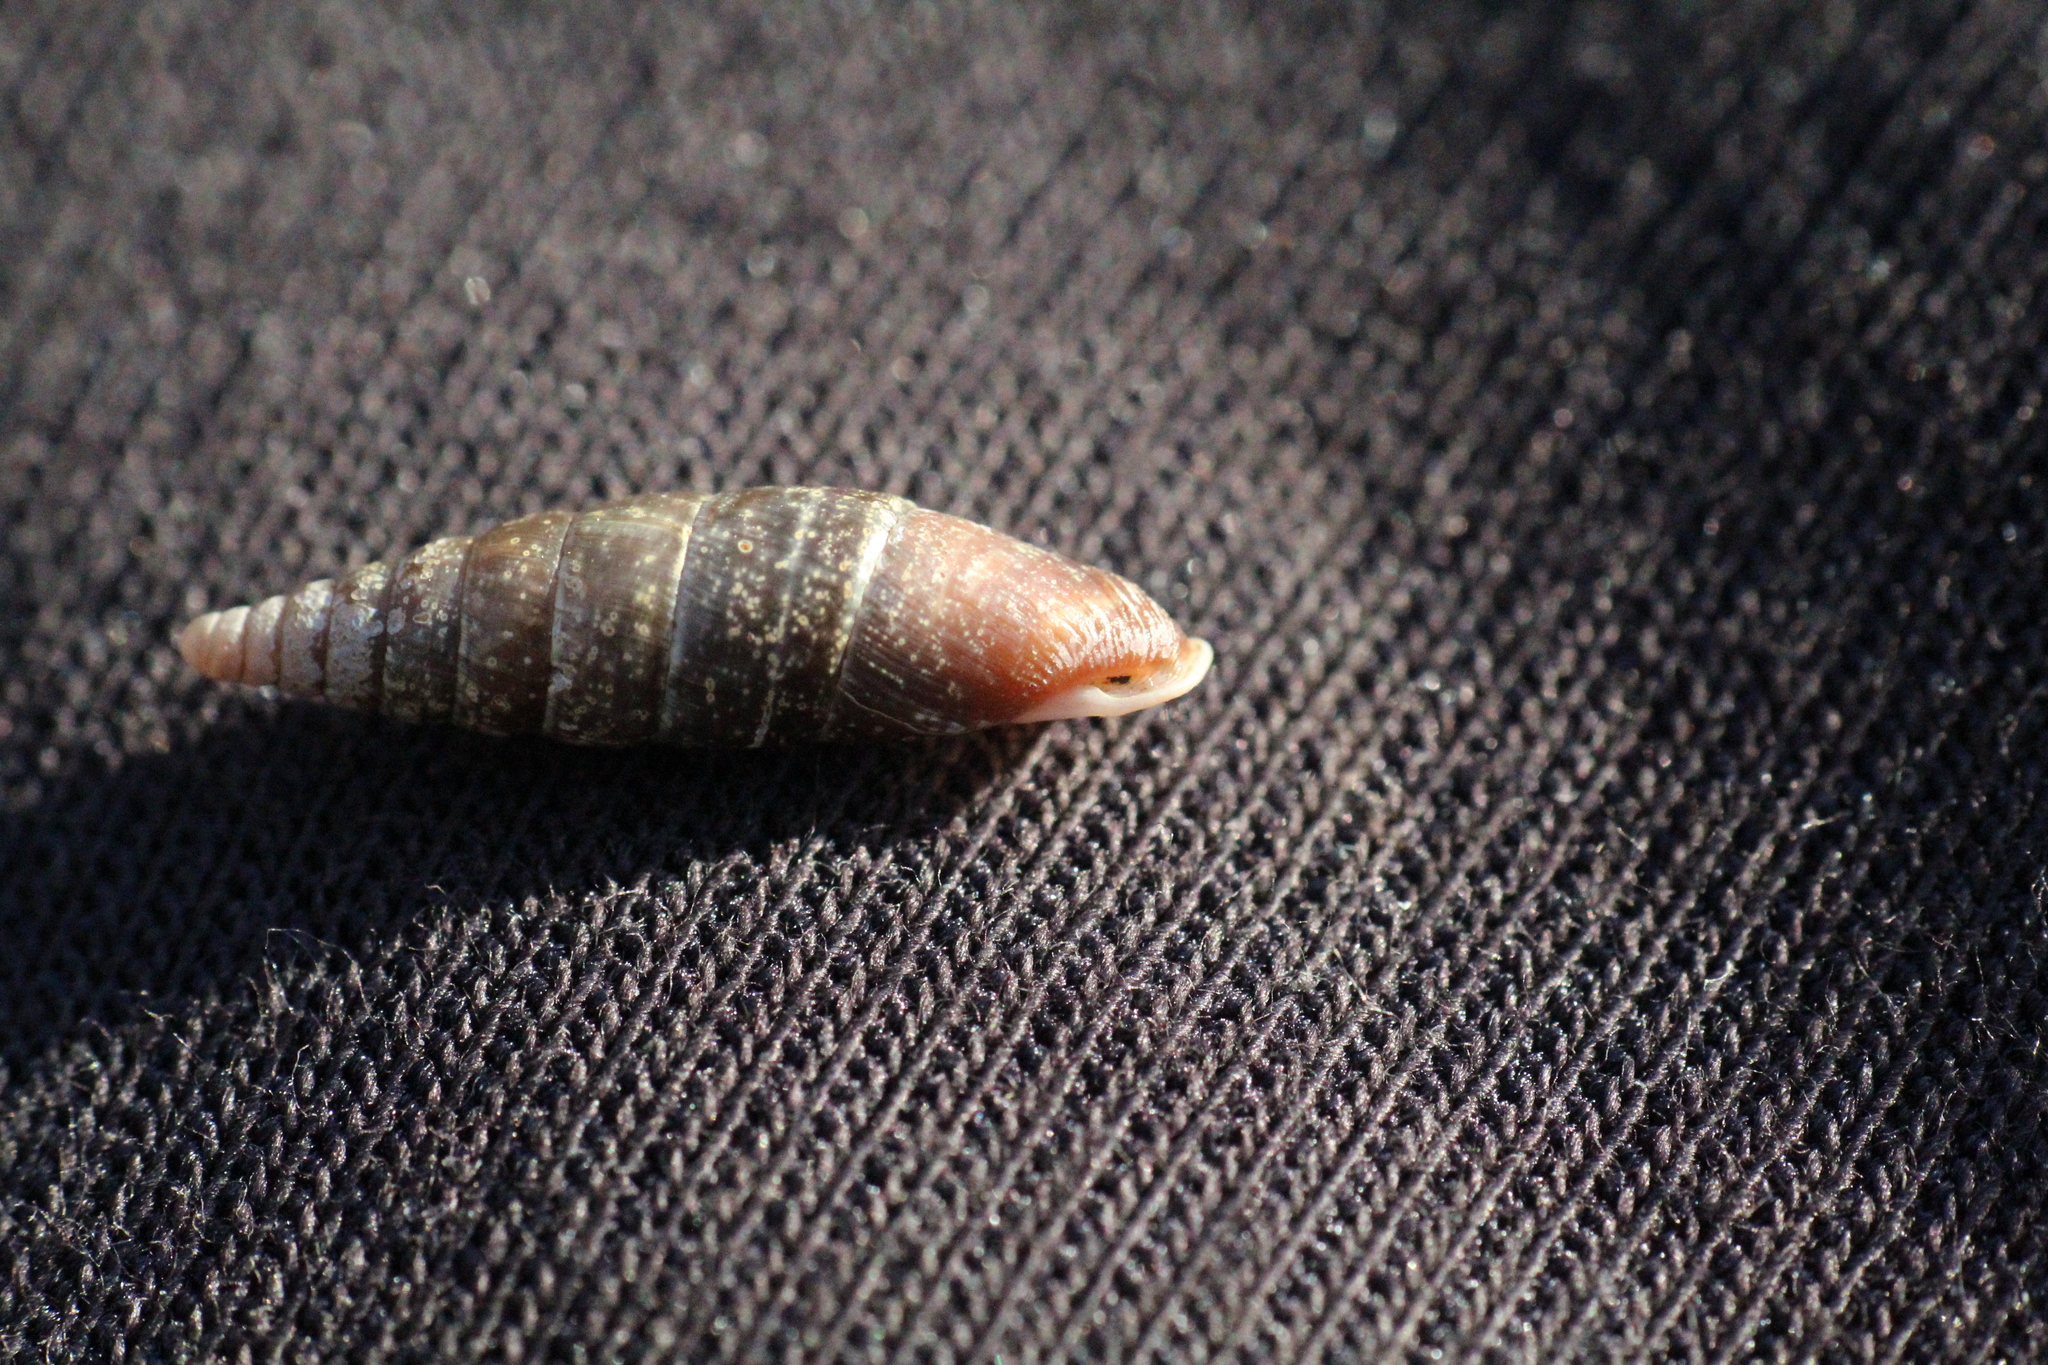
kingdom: Animalia
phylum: Mollusca
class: Gastropoda
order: Stylommatophora
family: Clausiliidae
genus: Cochlodina
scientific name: Cochlodina laminata
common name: Plaited door snail
